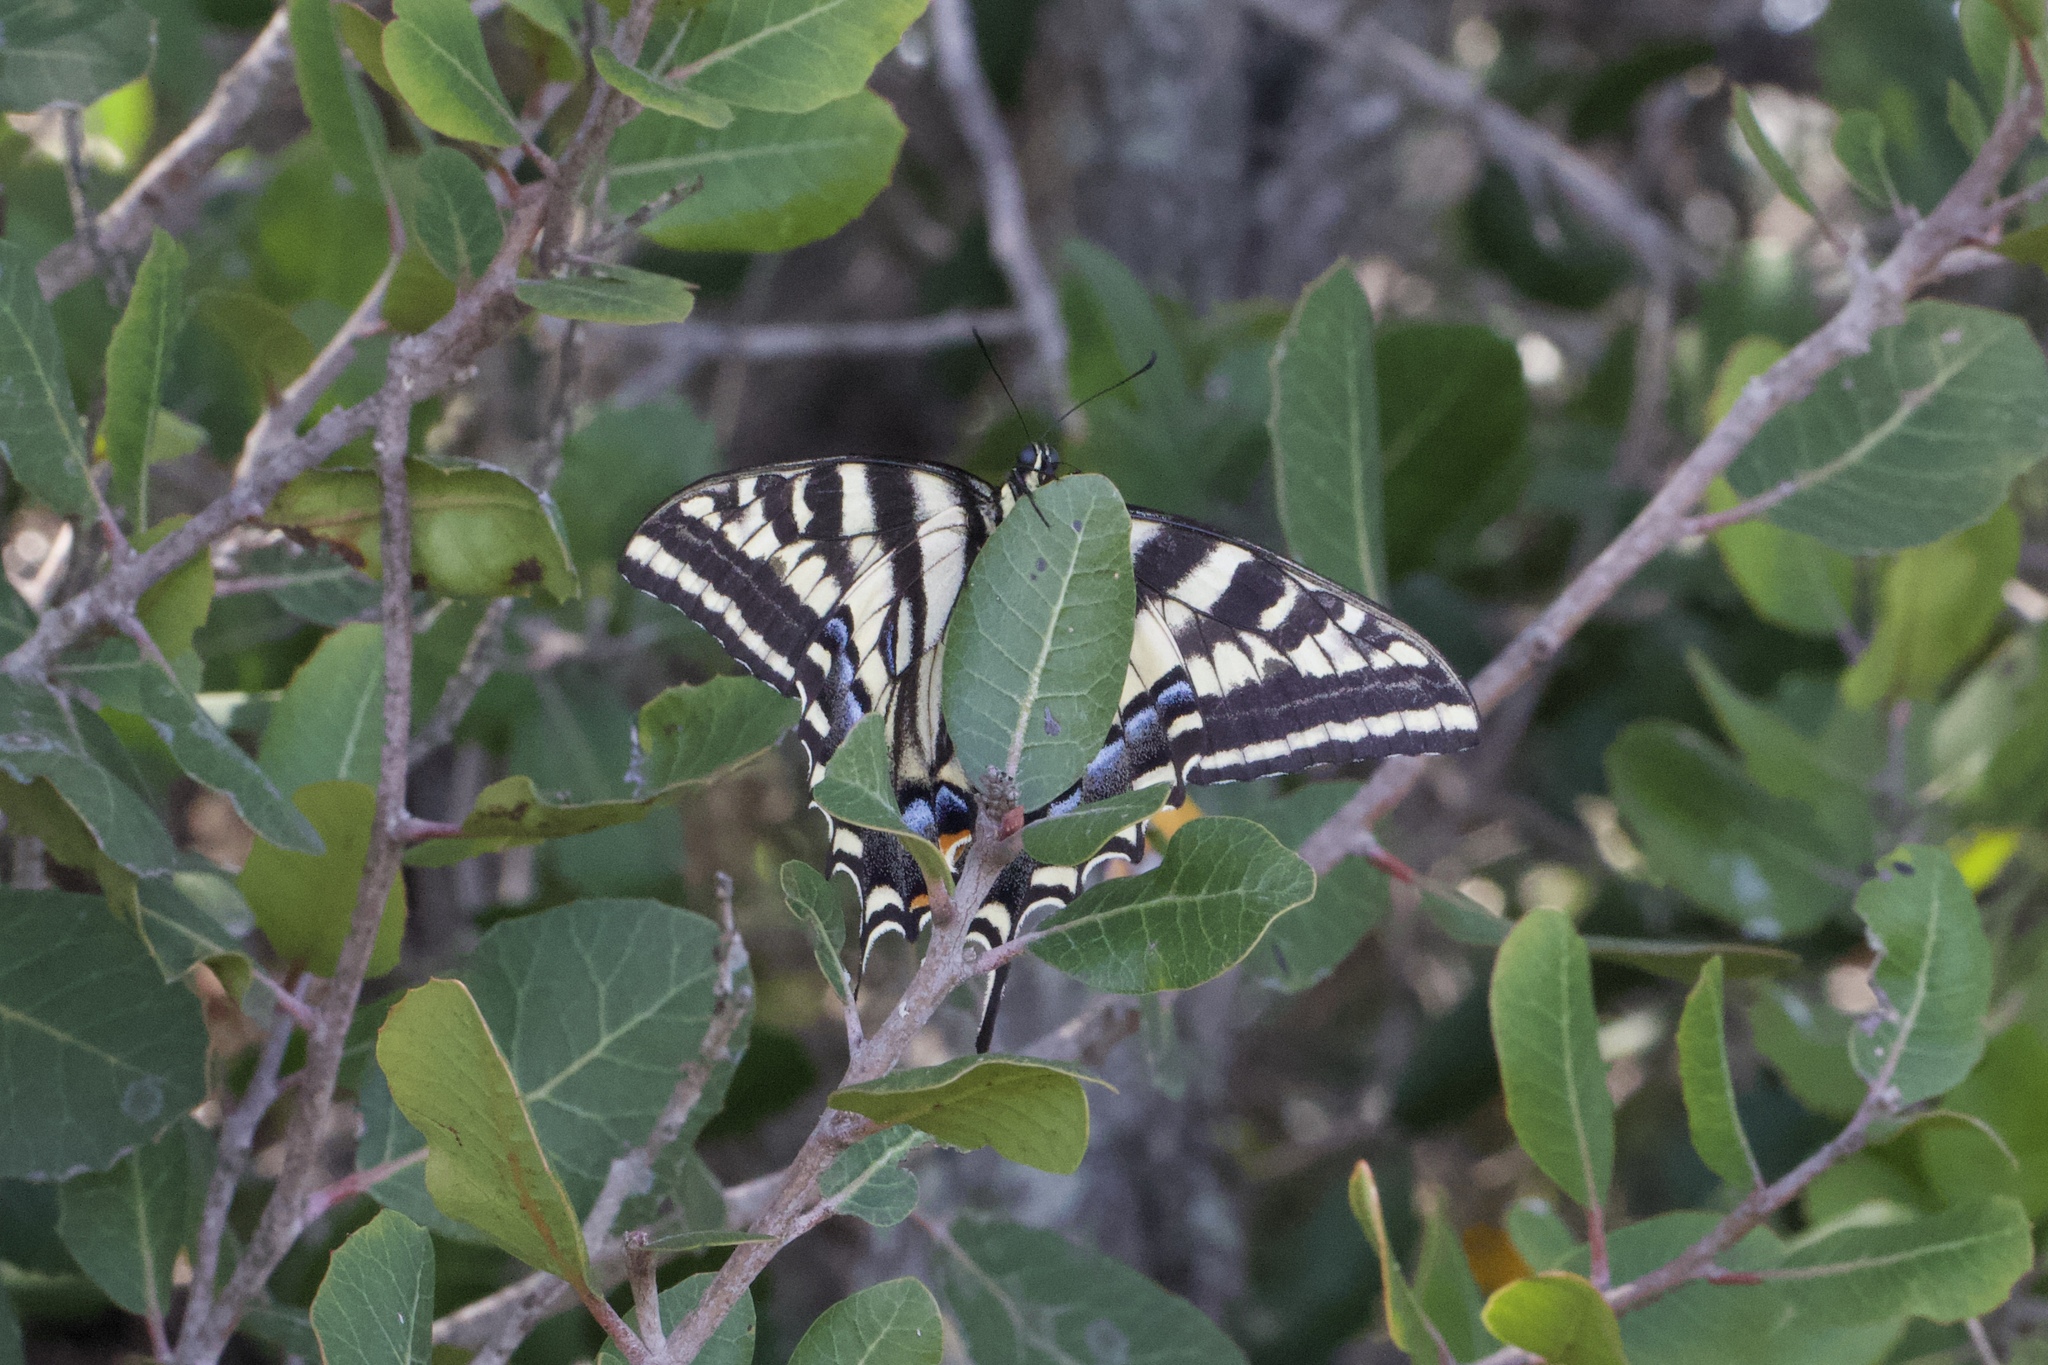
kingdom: Animalia
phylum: Arthropoda
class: Insecta
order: Lepidoptera
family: Papilionidae
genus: Papilio
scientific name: Papilio eurymedon
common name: Pale tiger swallowtail
